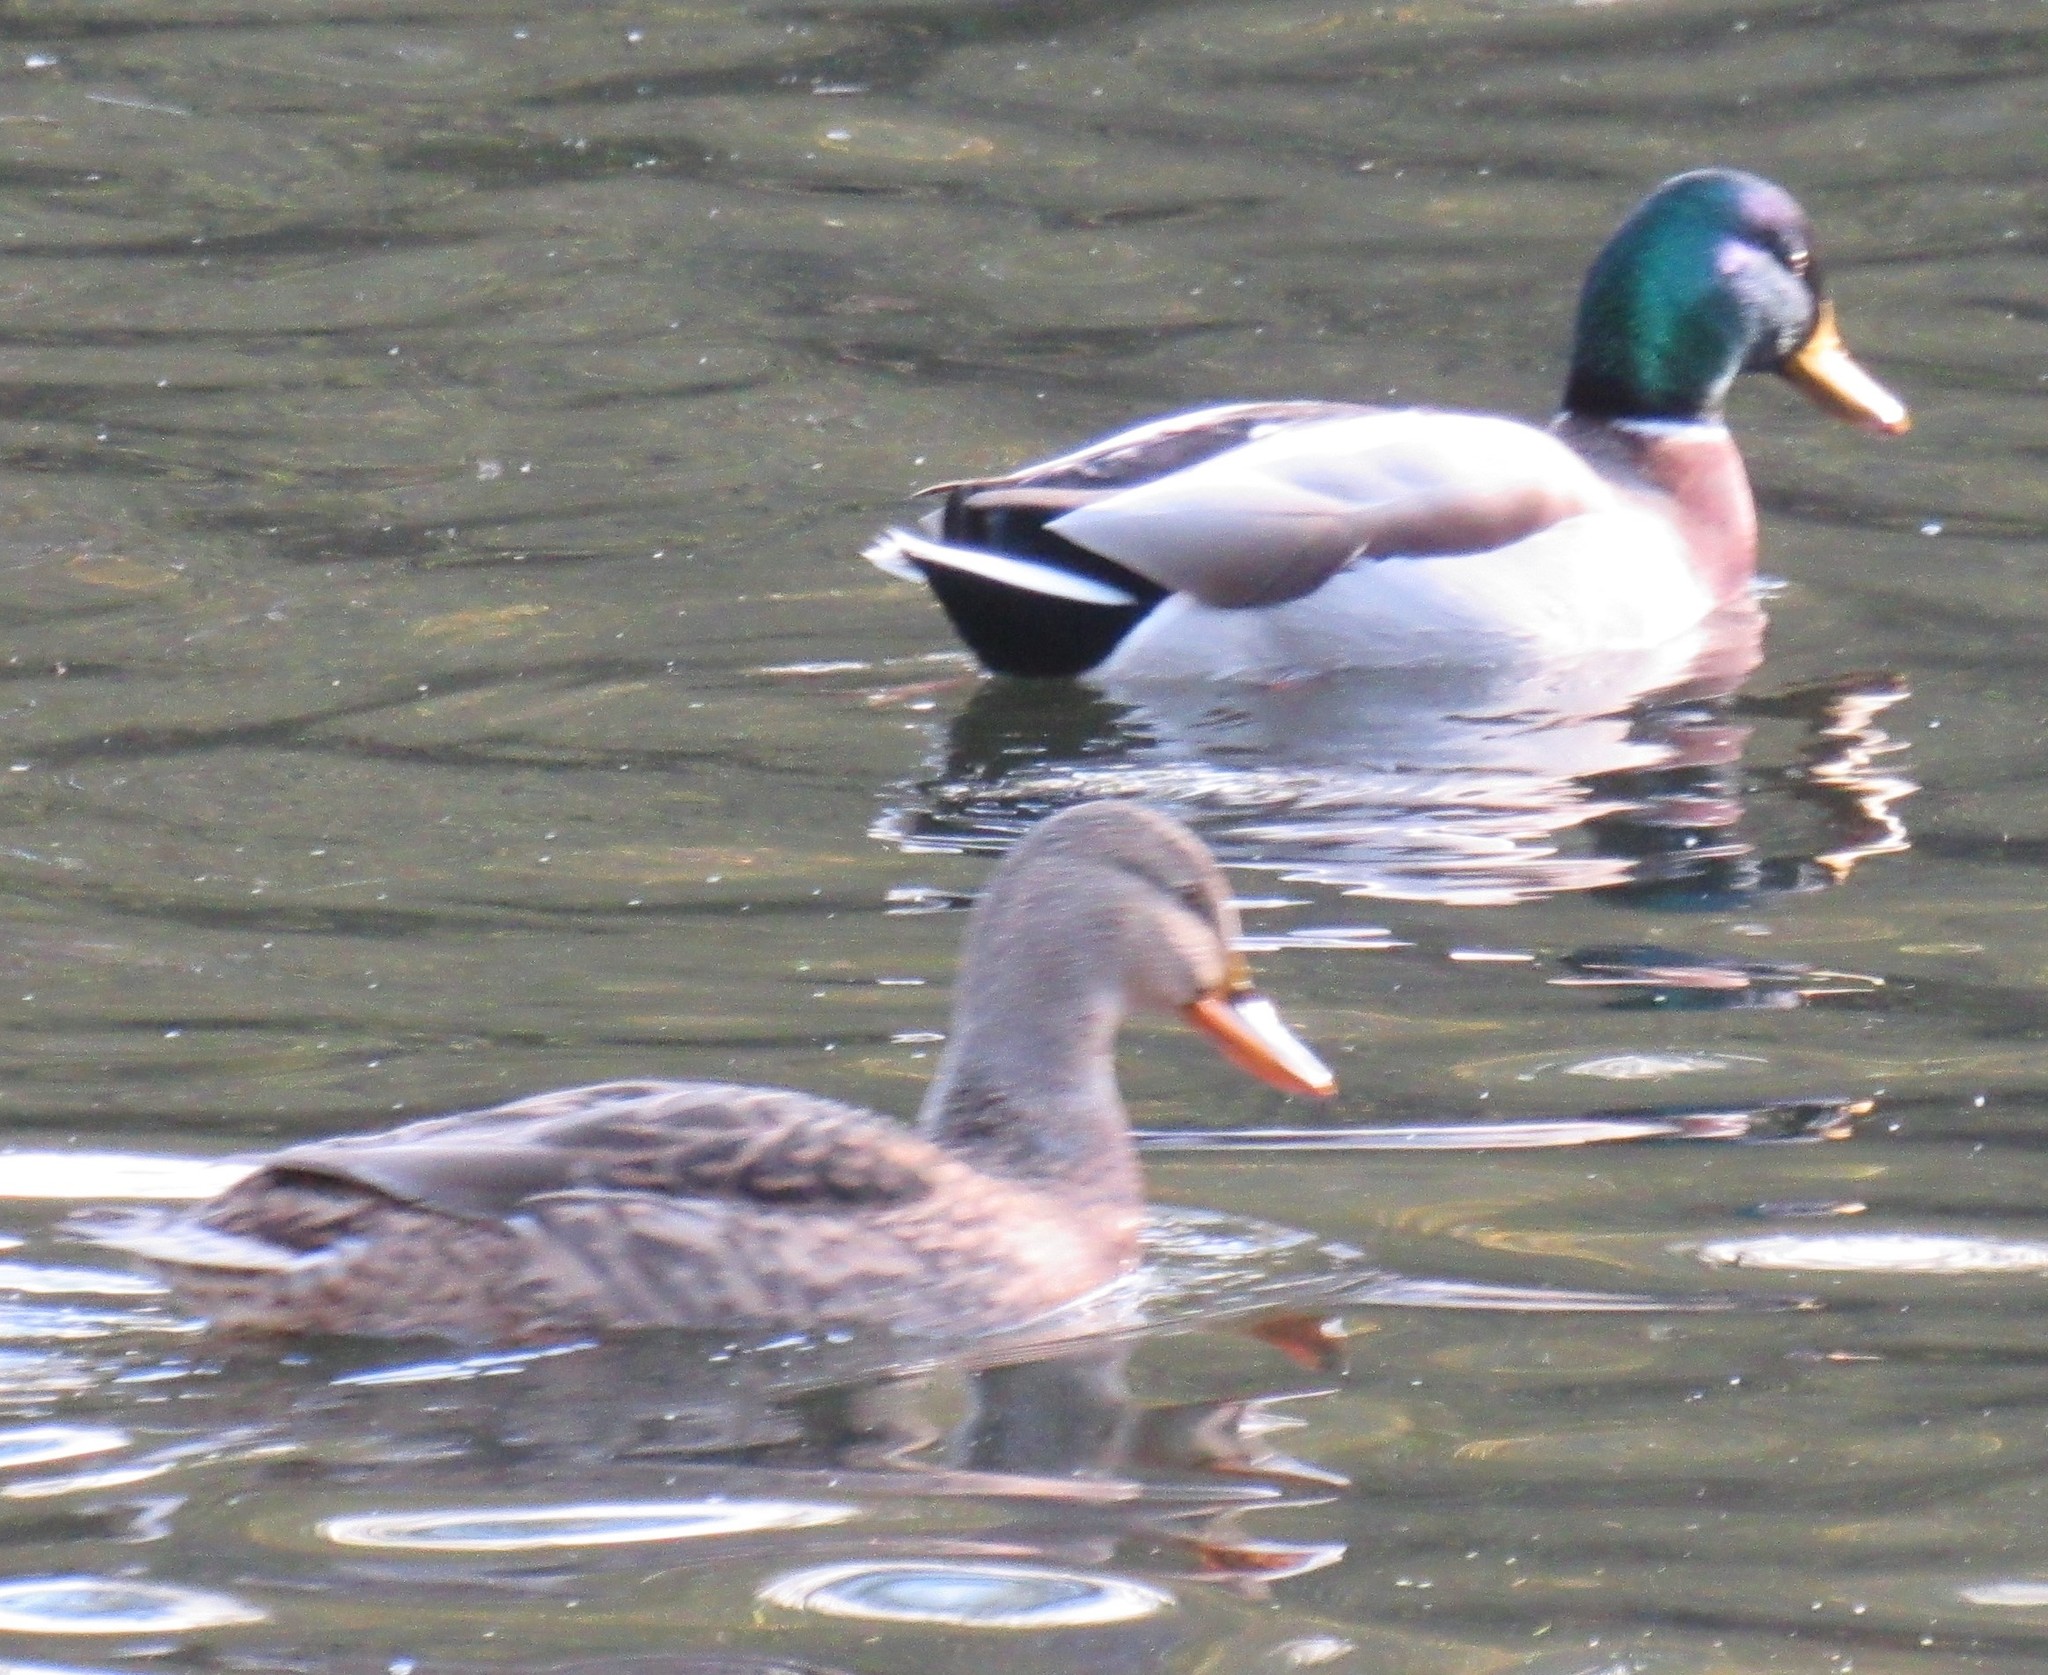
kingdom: Animalia
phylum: Chordata
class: Aves
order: Anseriformes
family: Anatidae
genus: Anas
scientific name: Anas platyrhynchos
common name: Mallard
